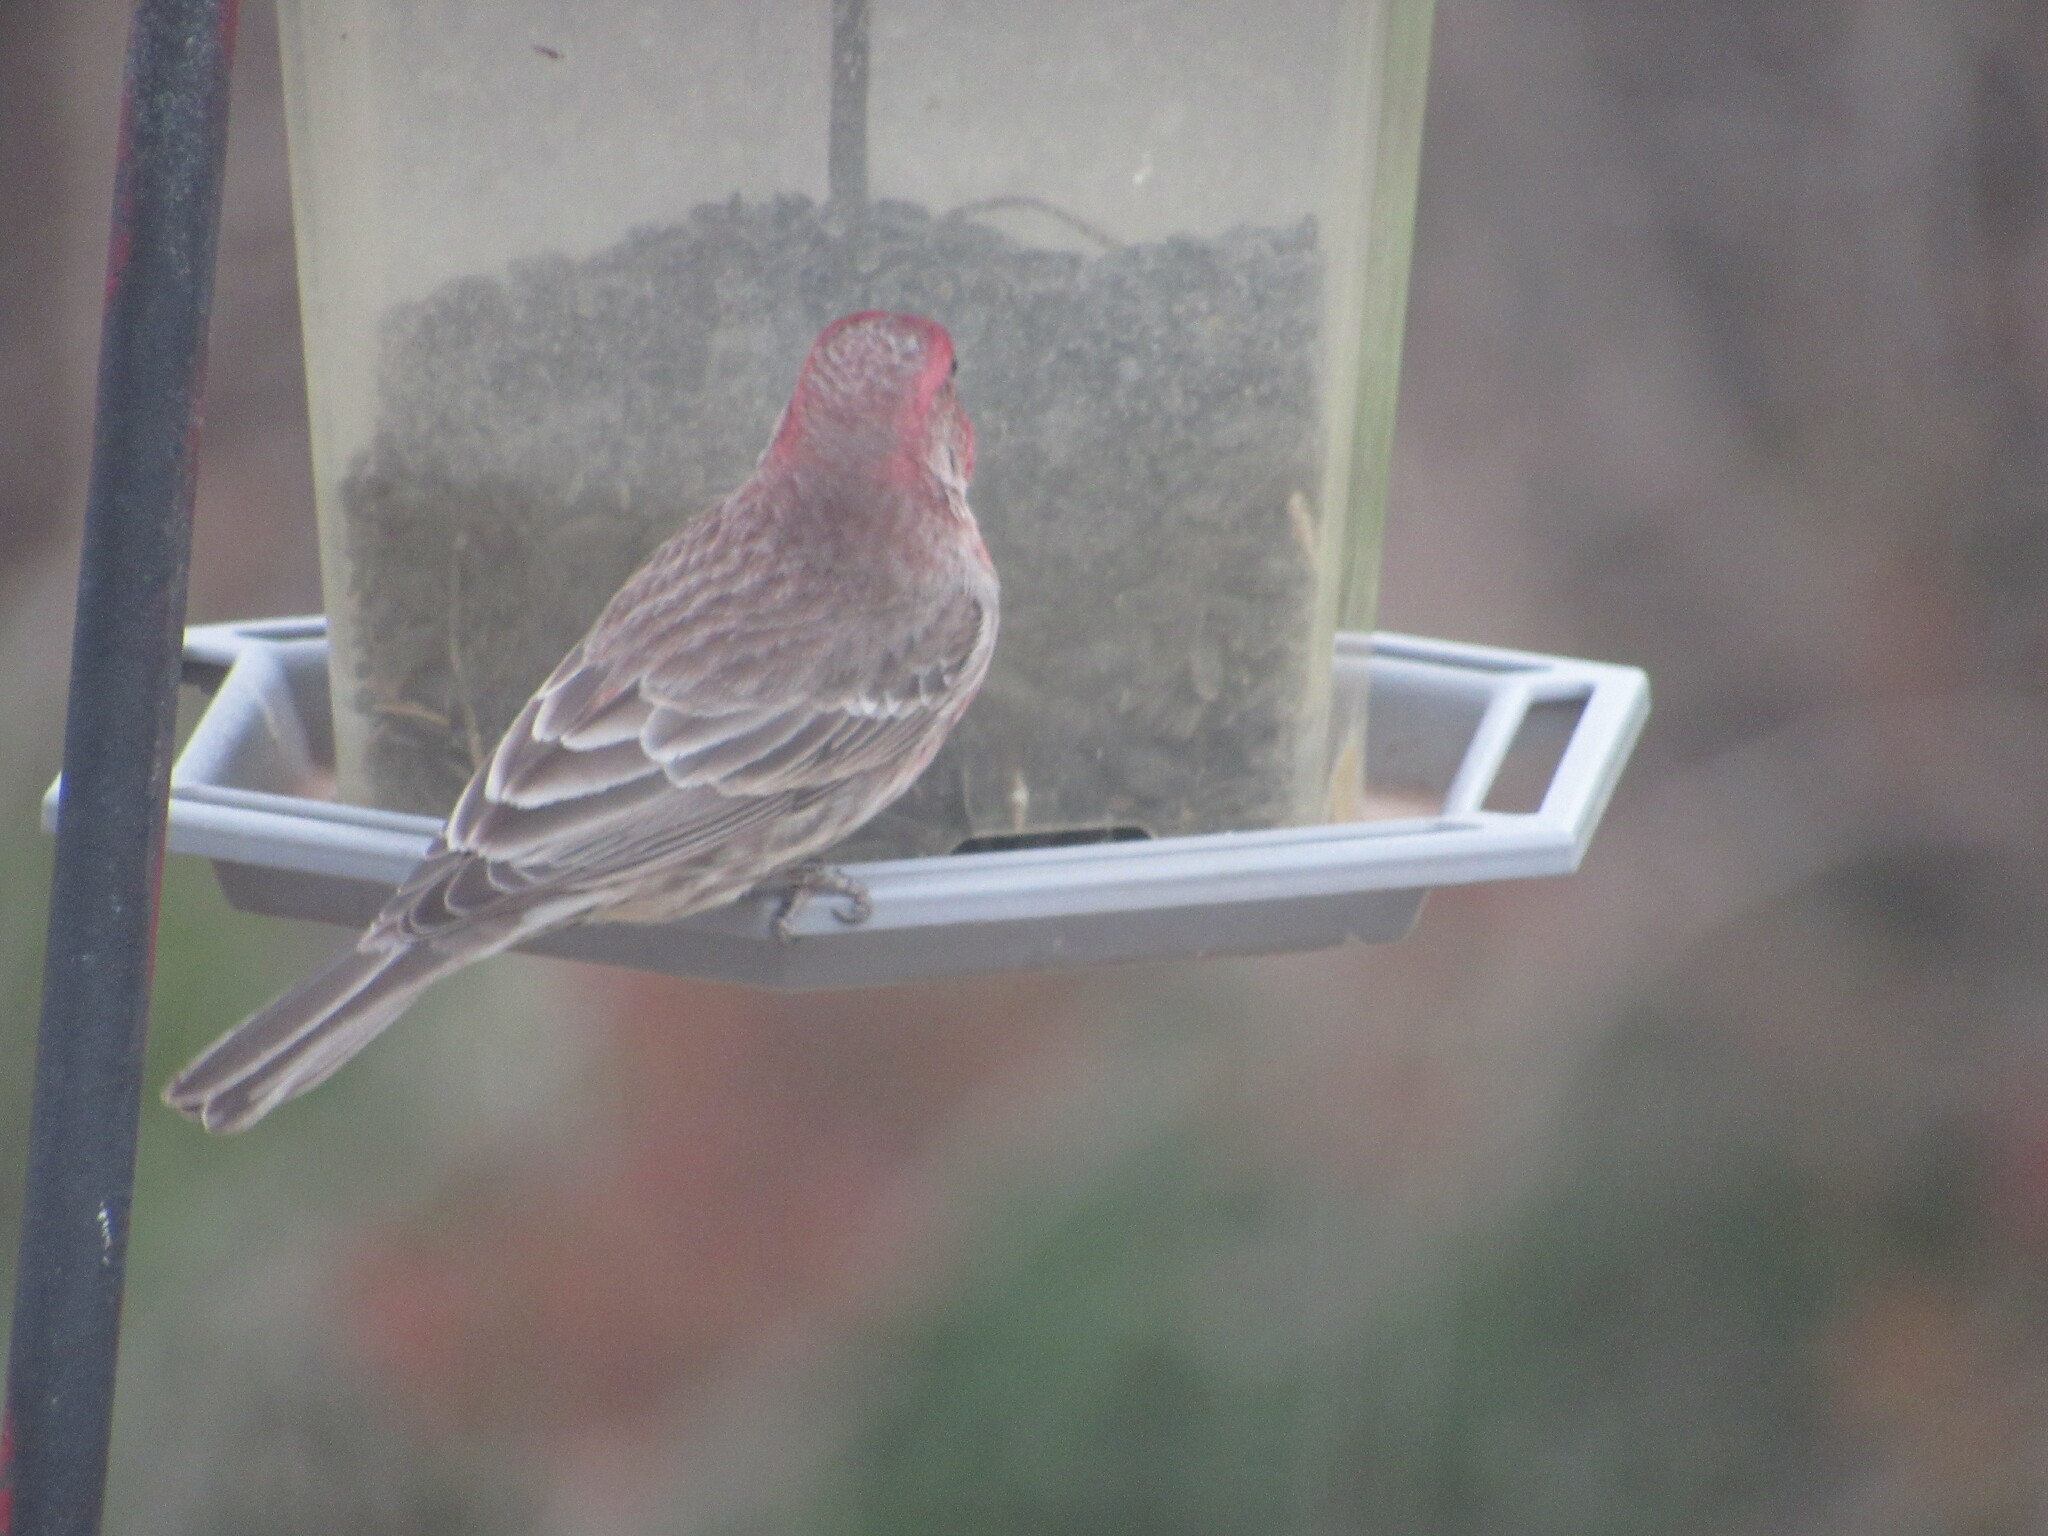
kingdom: Animalia
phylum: Chordata
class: Aves
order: Passeriformes
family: Fringillidae
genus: Haemorhous
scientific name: Haemorhous mexicanus
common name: House finch
